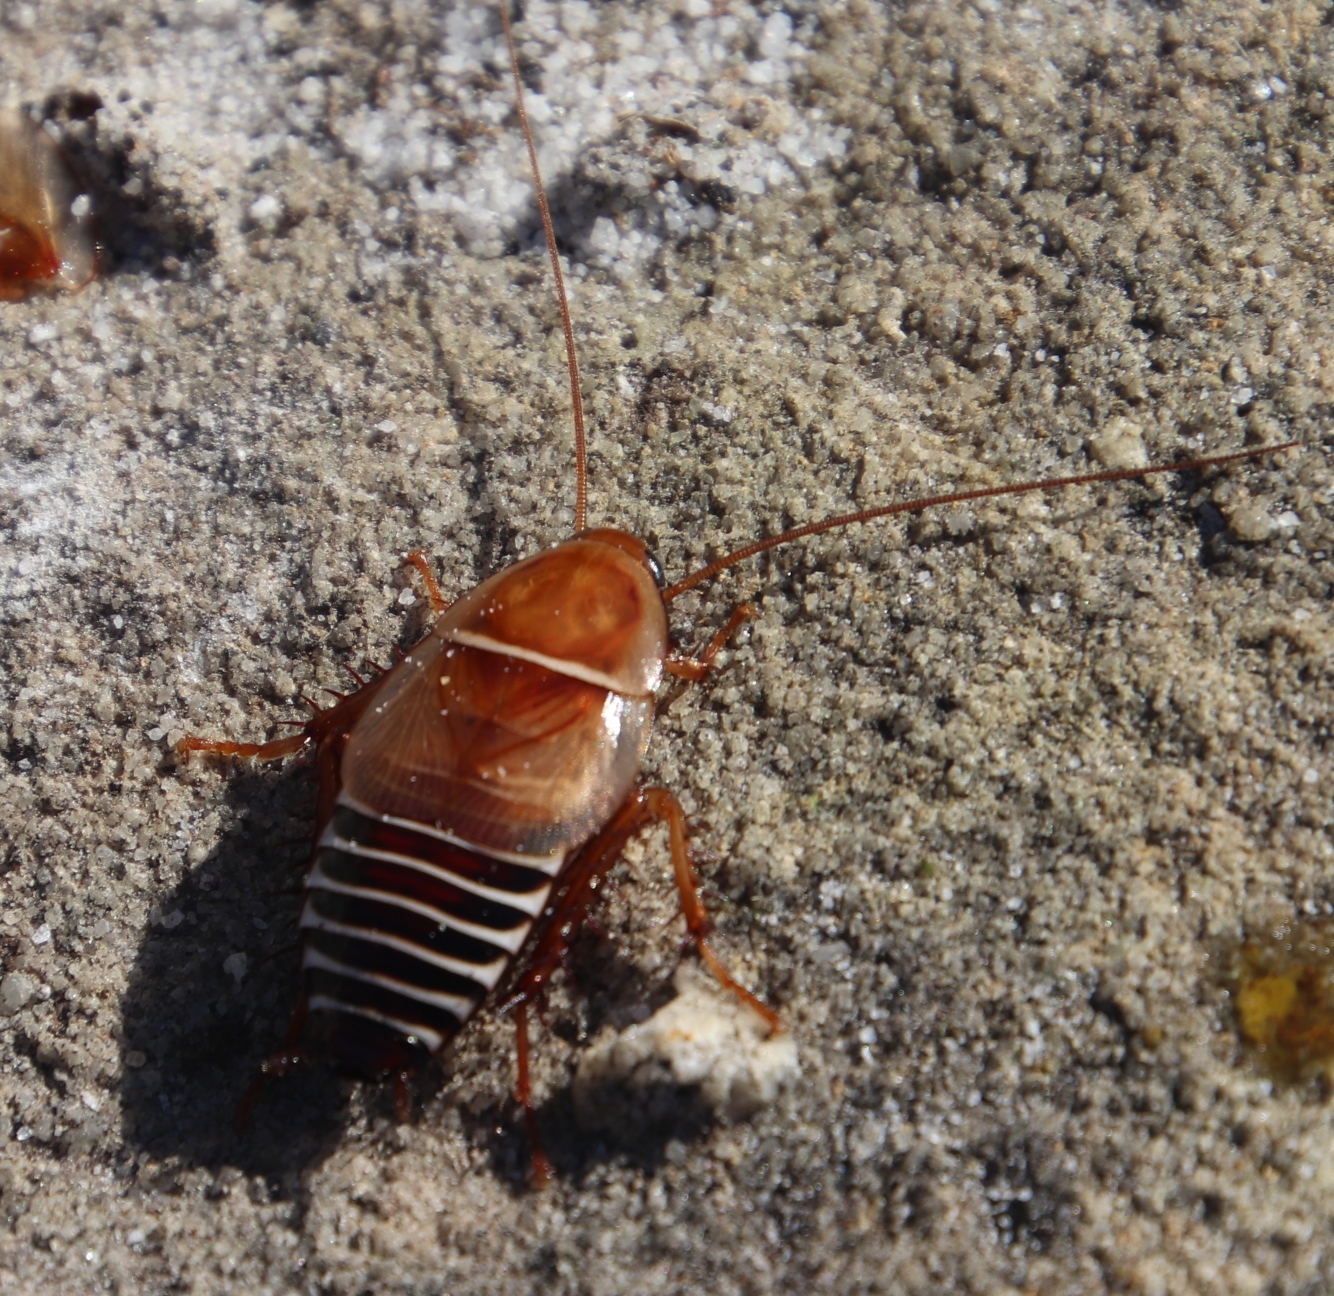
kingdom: Animalia
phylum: Arthropoda
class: Insecta
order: Blattodea
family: Ectobiidae
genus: Temnopteryx
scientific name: Temnopteryx phalerata
